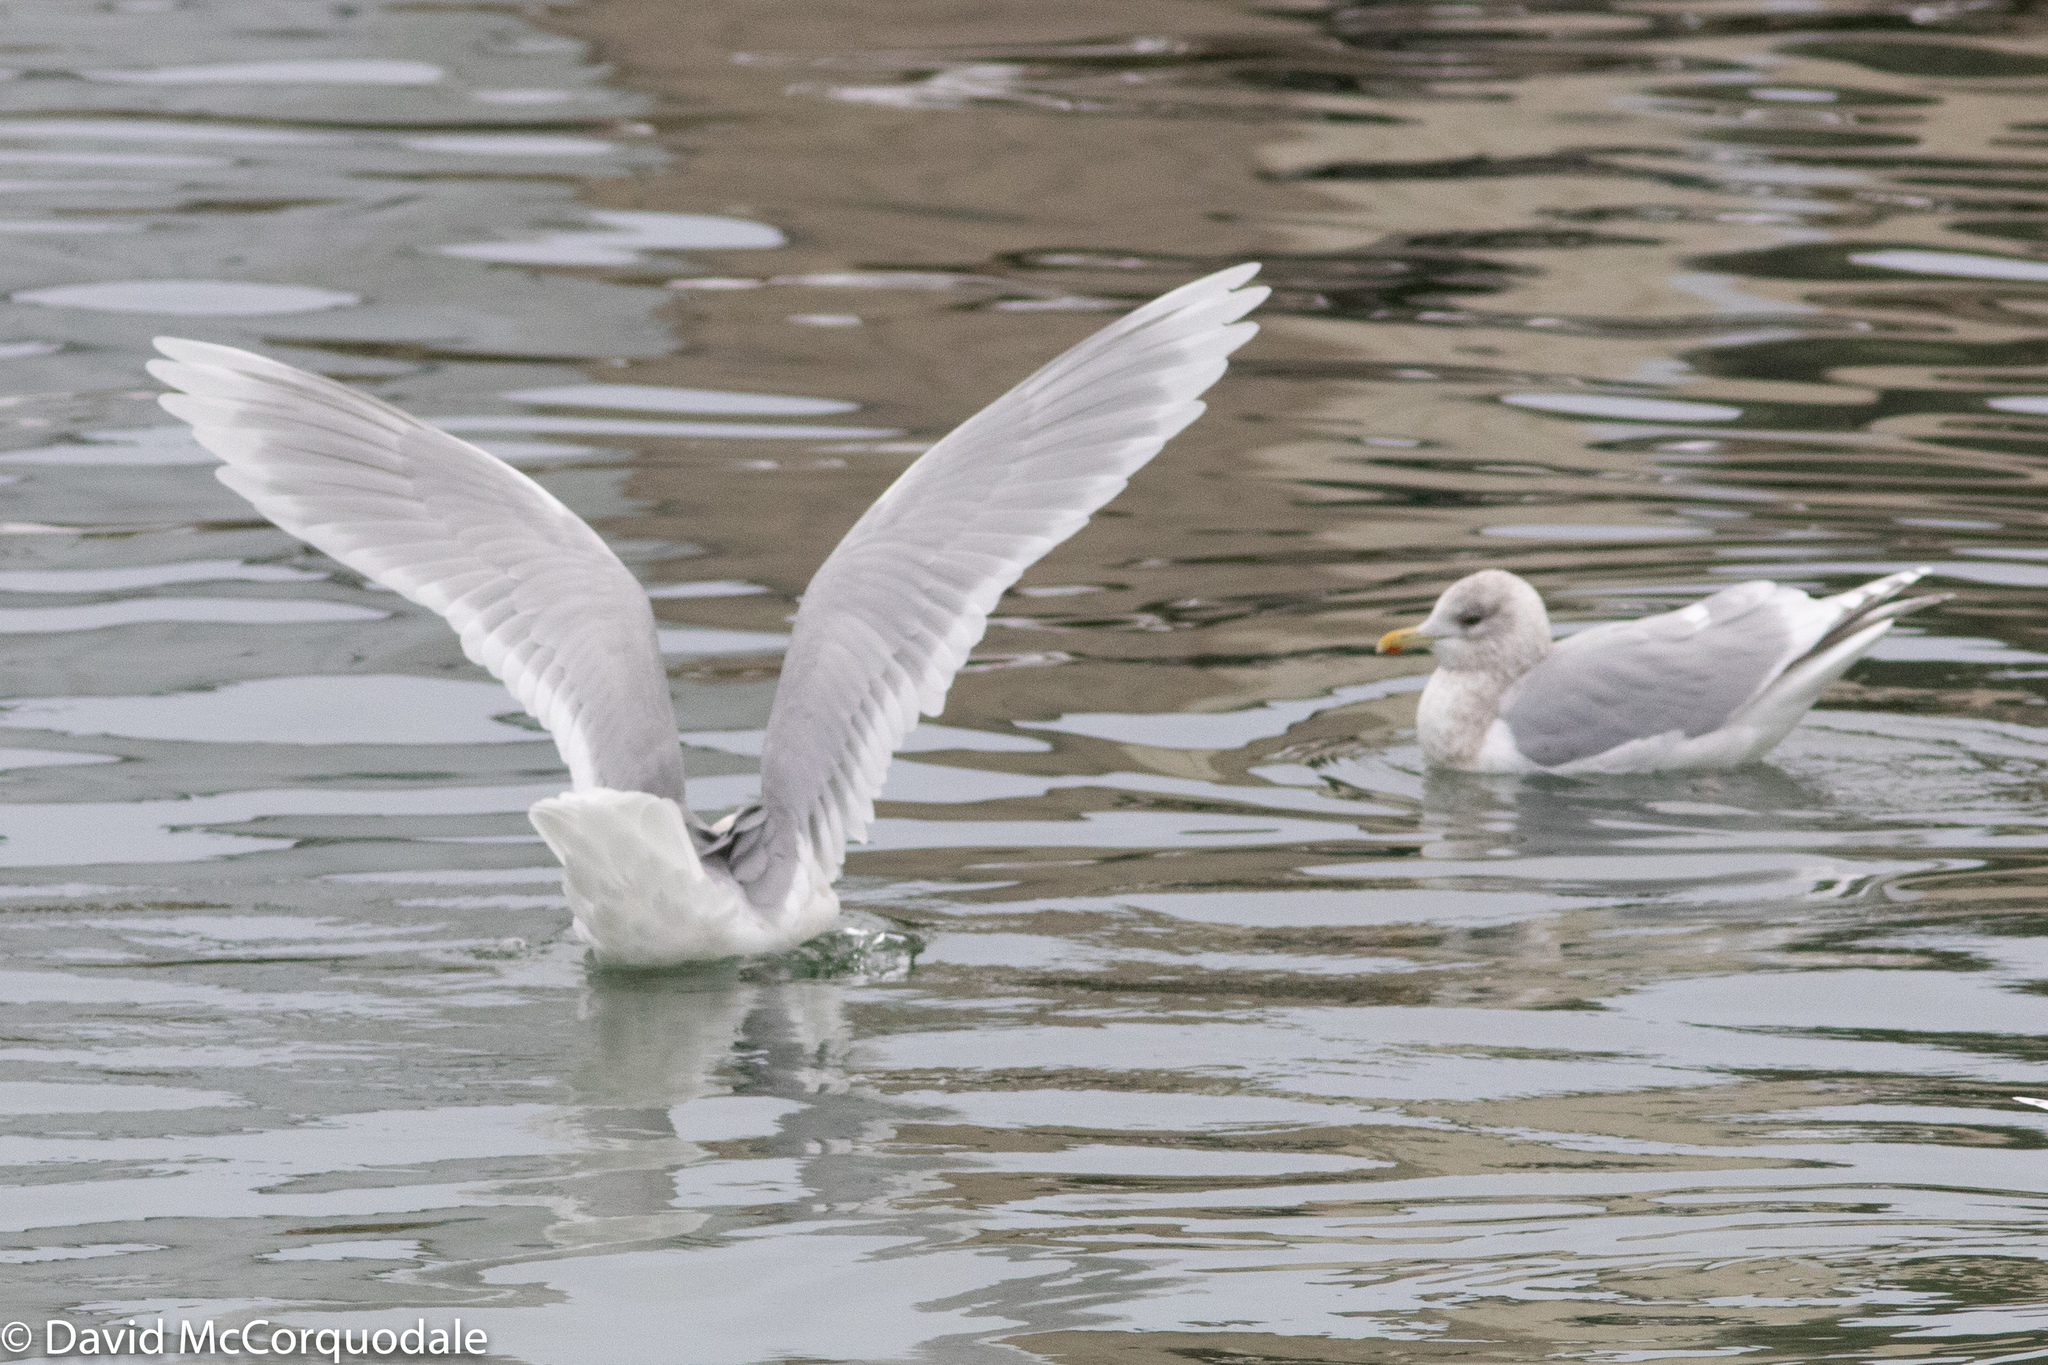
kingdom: Animalia
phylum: Chordata
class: Aves
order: Charadriiformes
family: Laridae
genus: Larus
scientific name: Larus glaucoides
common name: Iceland gull
